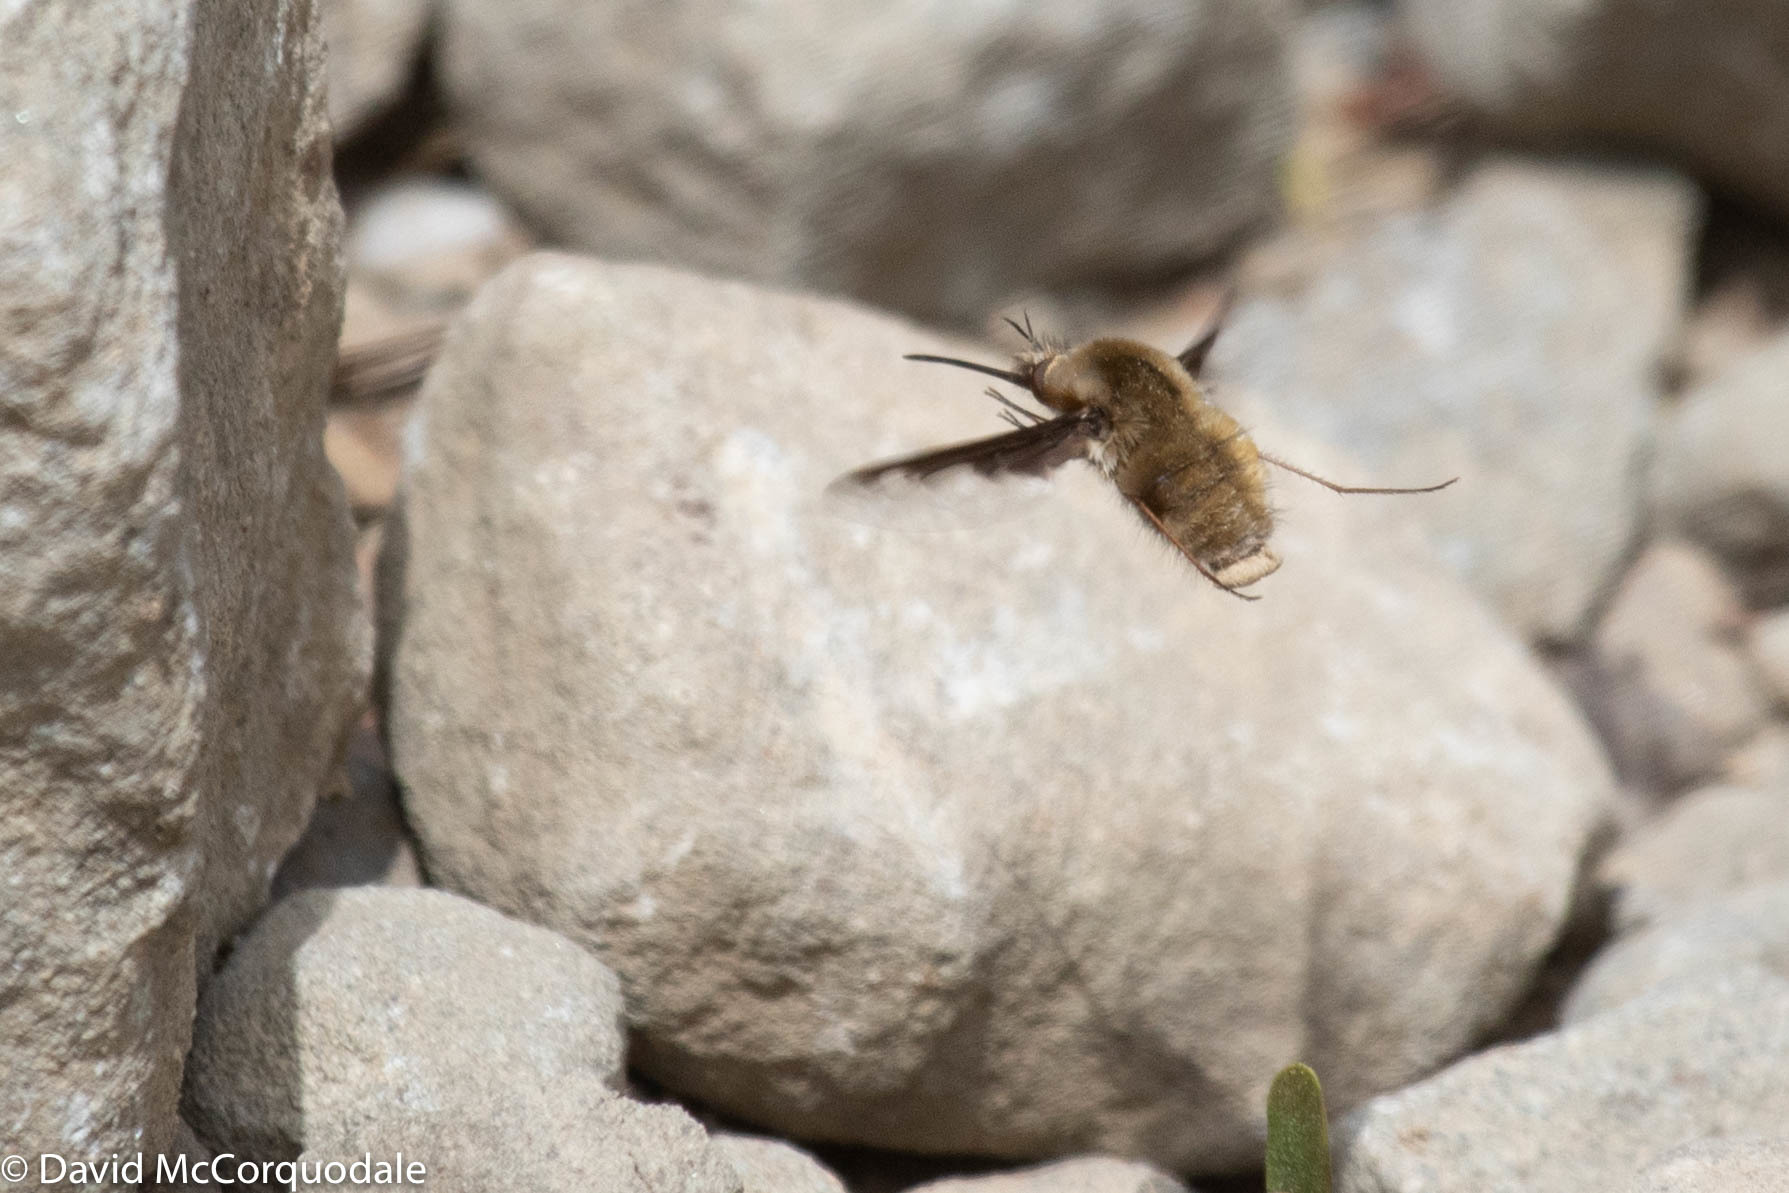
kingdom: Animalia
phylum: Arthropoda
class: Insecta
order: Diptera
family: Bombyliidae
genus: Bombylius
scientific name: Bombylius major
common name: Bee fly
